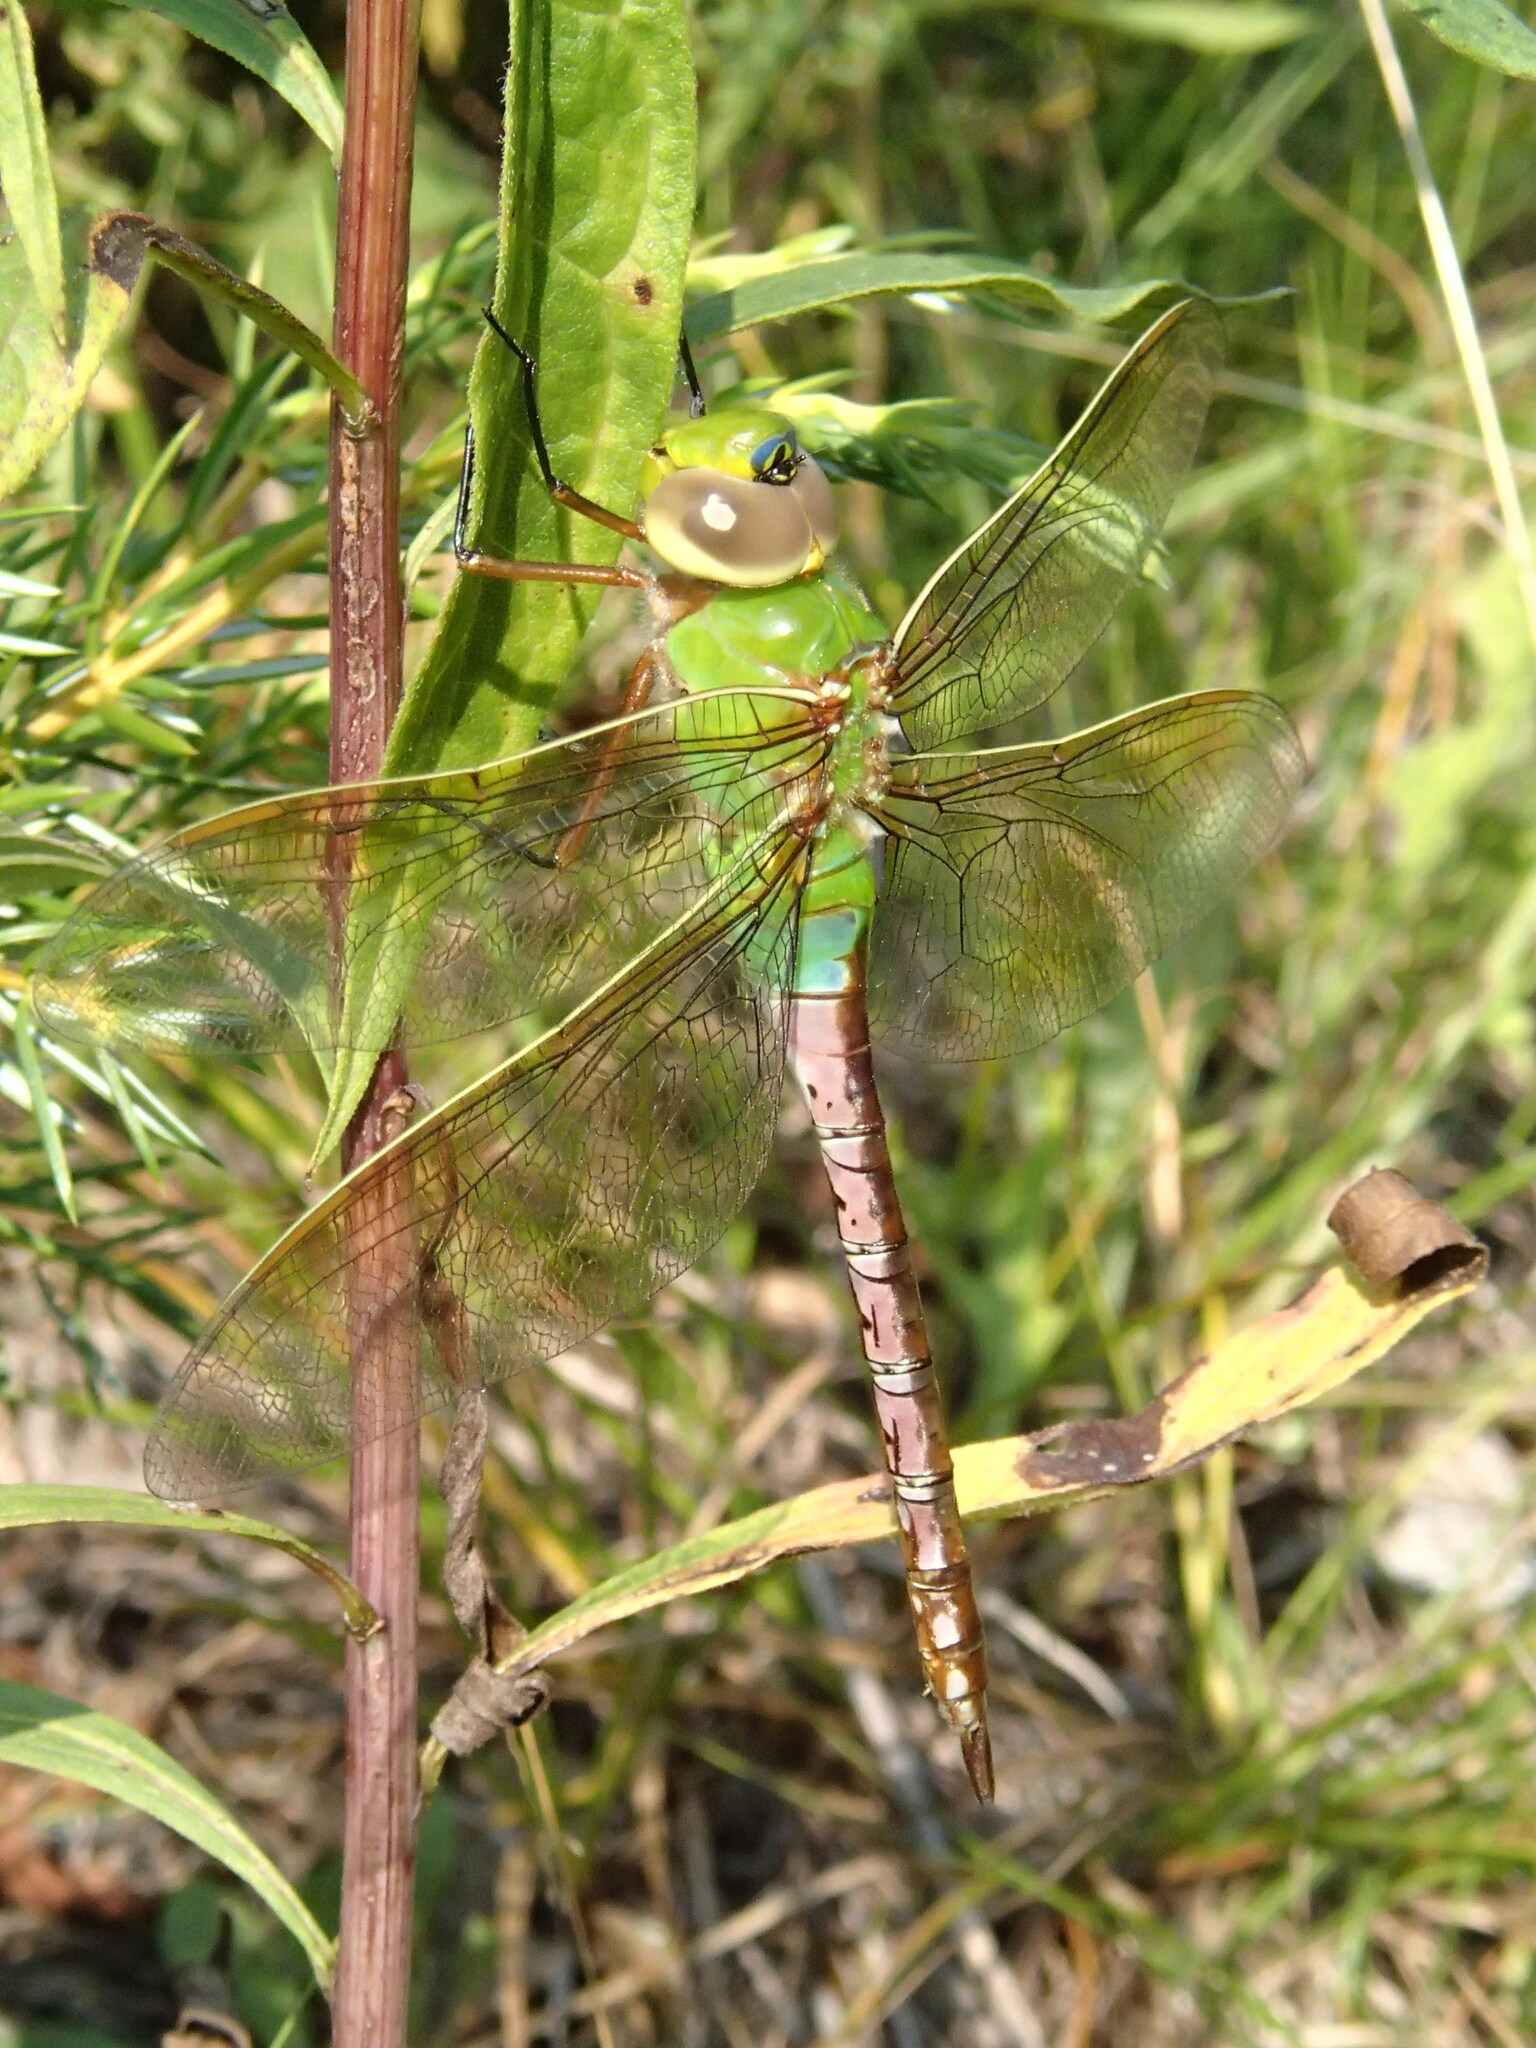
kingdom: Animalia
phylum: Arthropoda
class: Insecta
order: Odonata
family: Aeshnidae
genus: Anax
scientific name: Anax junius
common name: Common green darner
